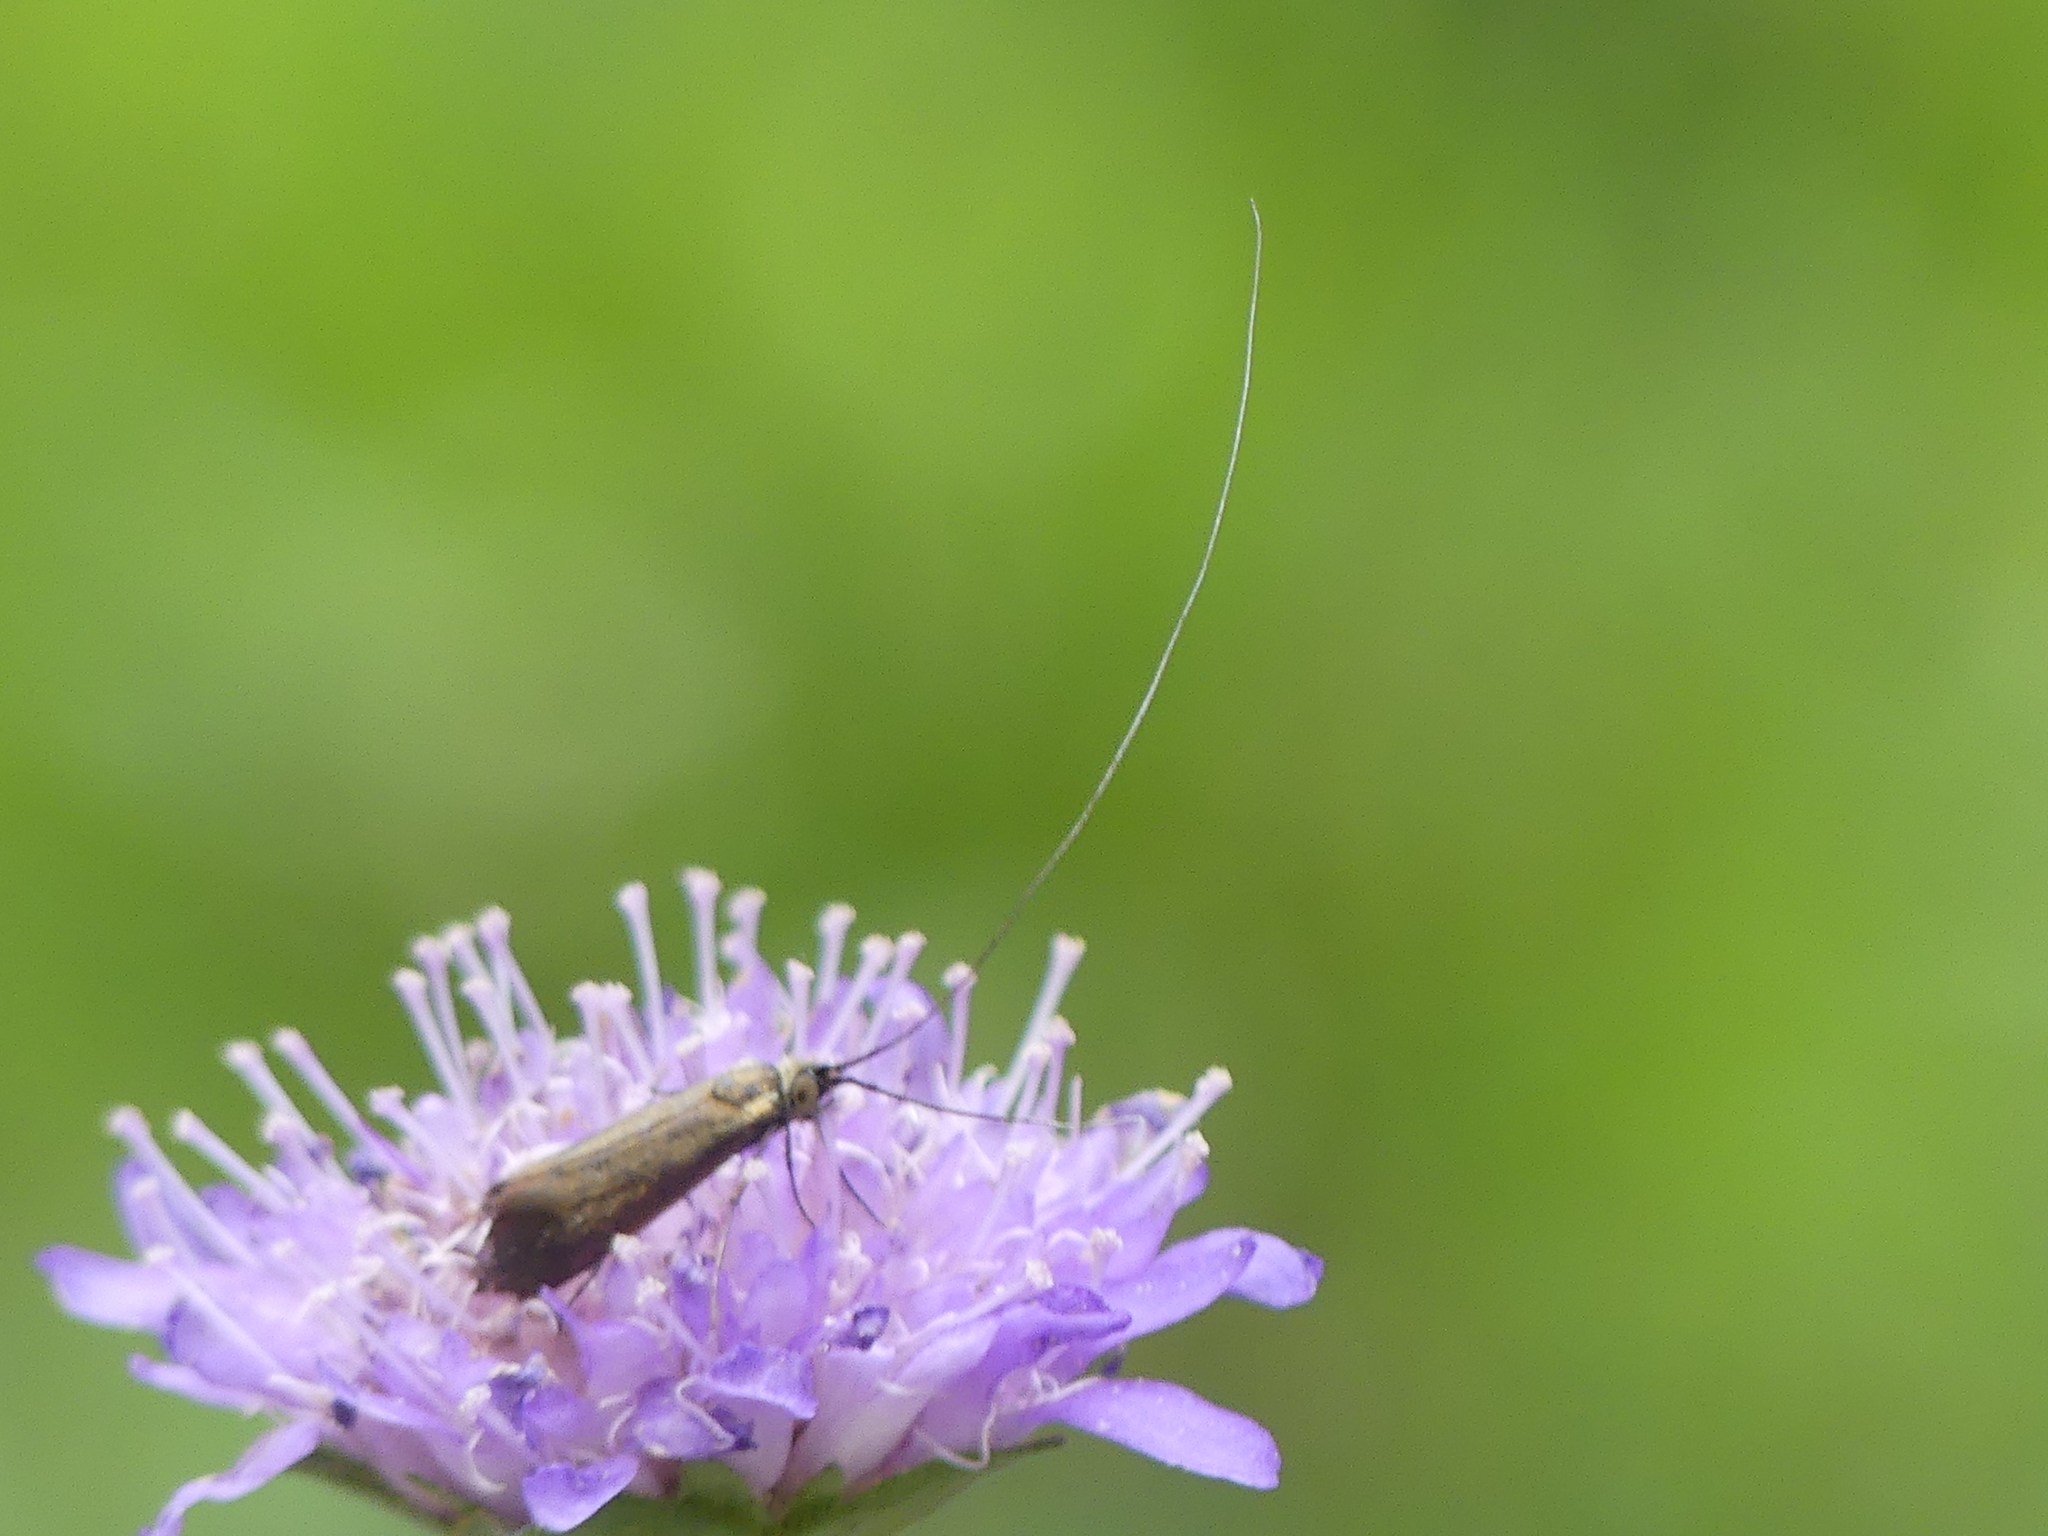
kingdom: Animalia
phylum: Arthropoda
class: Insecta
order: Lepidoptera
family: Adelidae
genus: Nemophora
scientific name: Nemophora metallica
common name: Brassy long-horn
